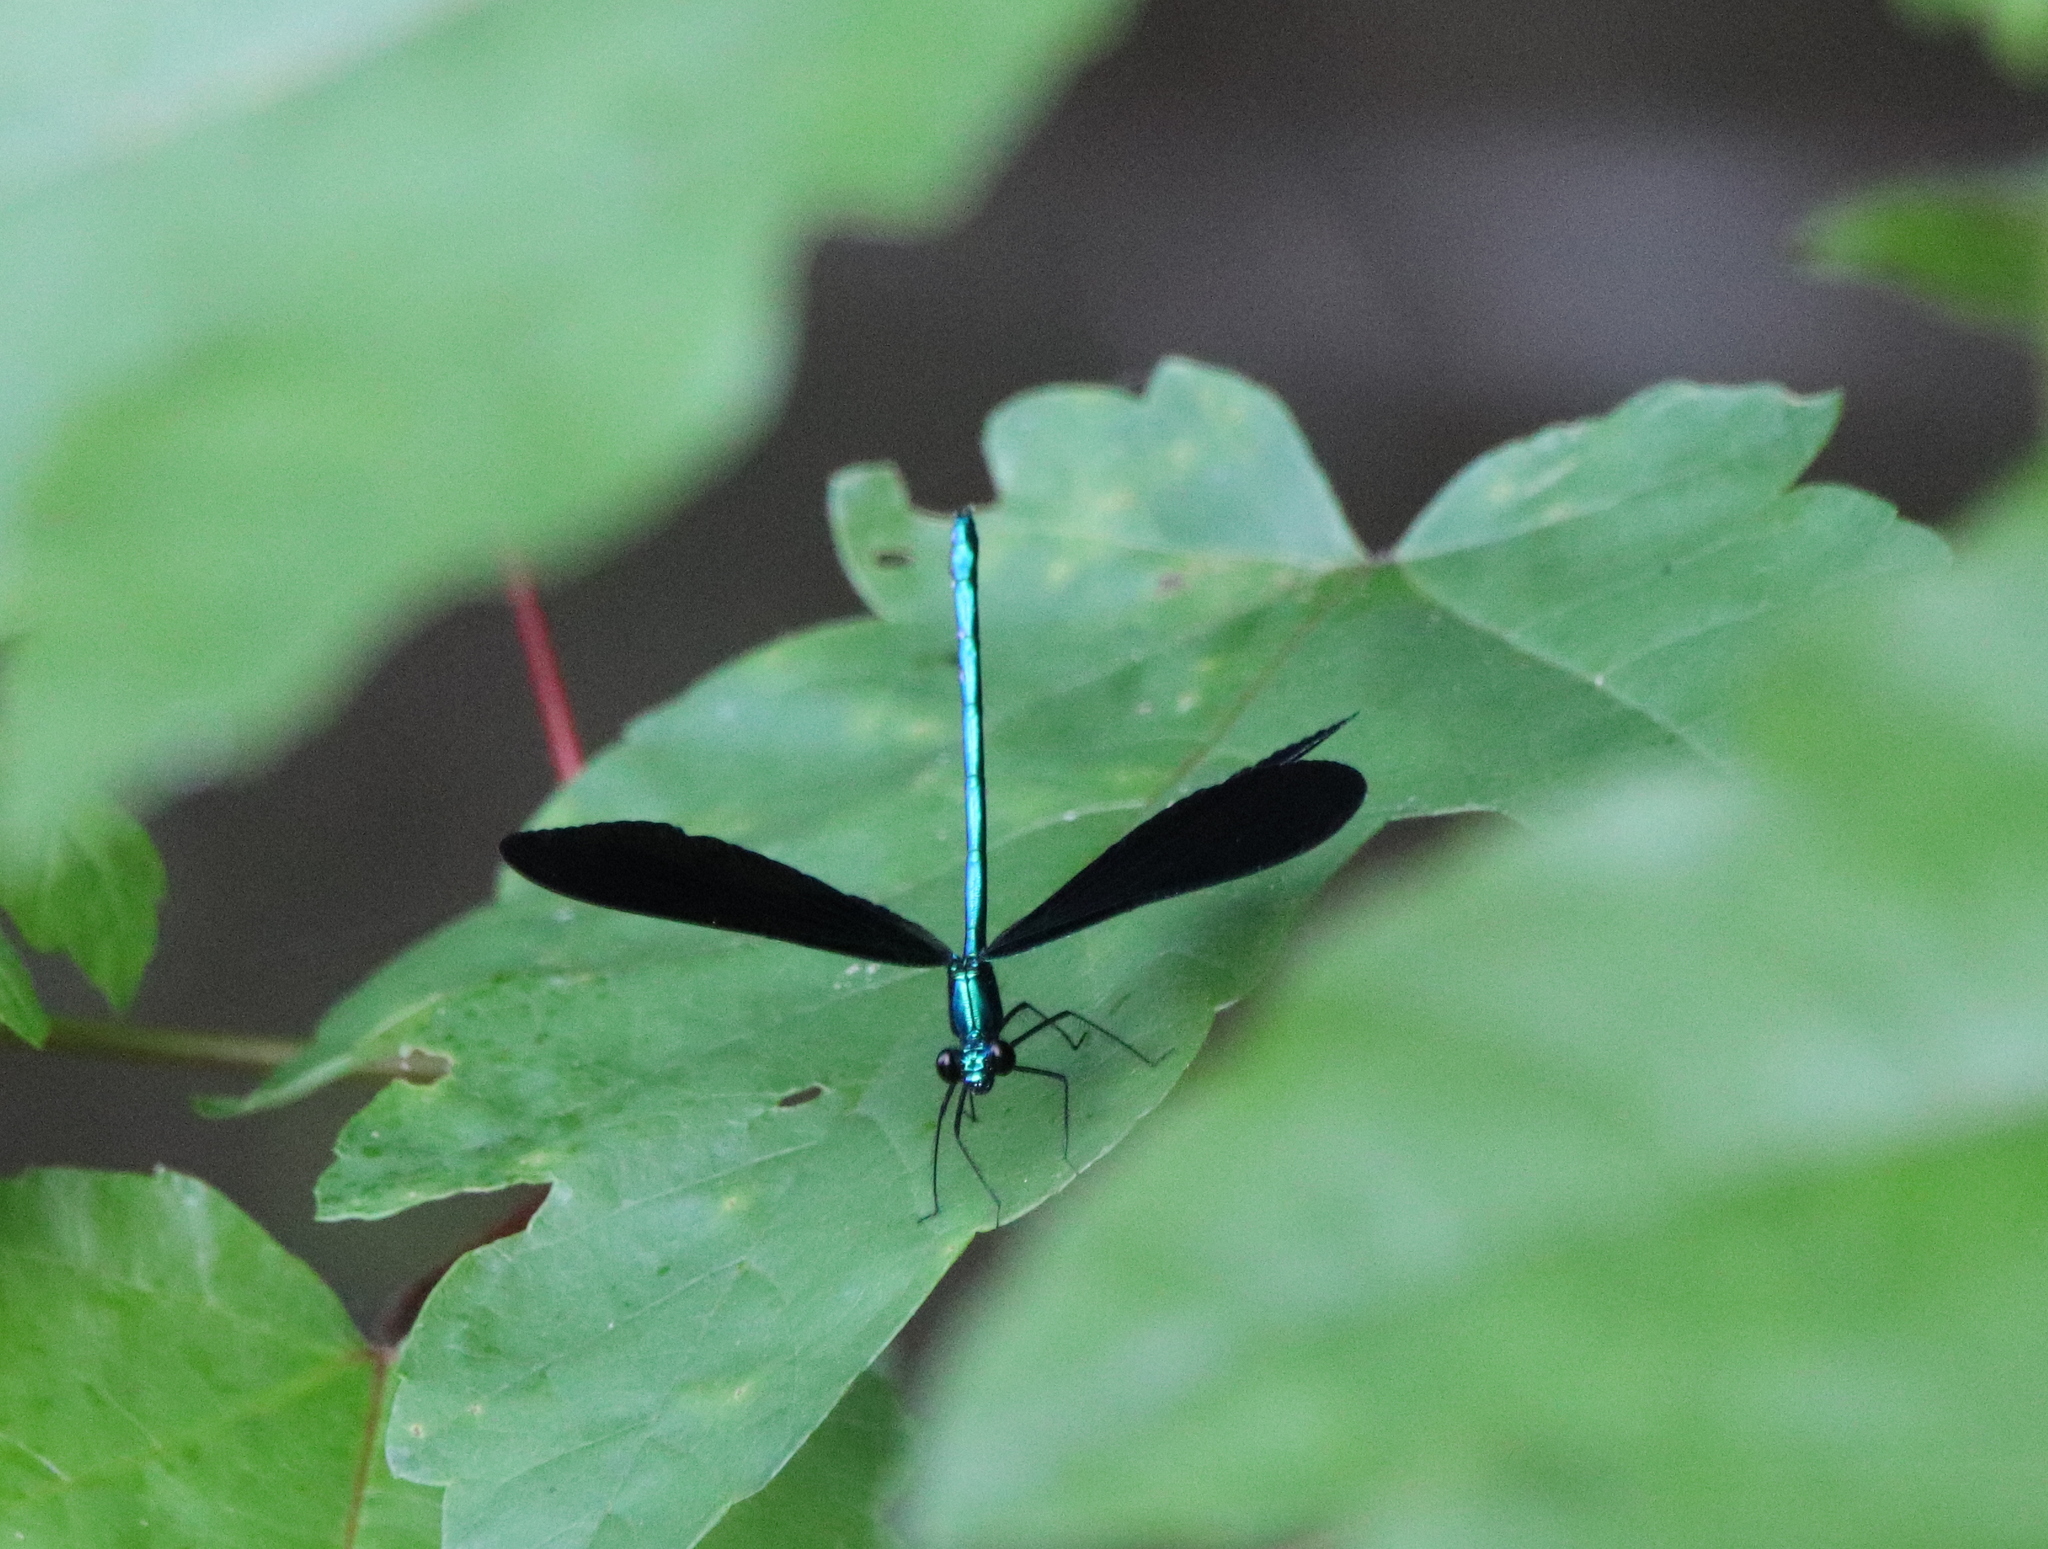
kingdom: Animalia
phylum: Arthropoda
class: Insecta
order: Odonata
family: Calopterygidae
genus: Calopteryx
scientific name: Calopteryx maculata
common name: Ebony jewelwing
